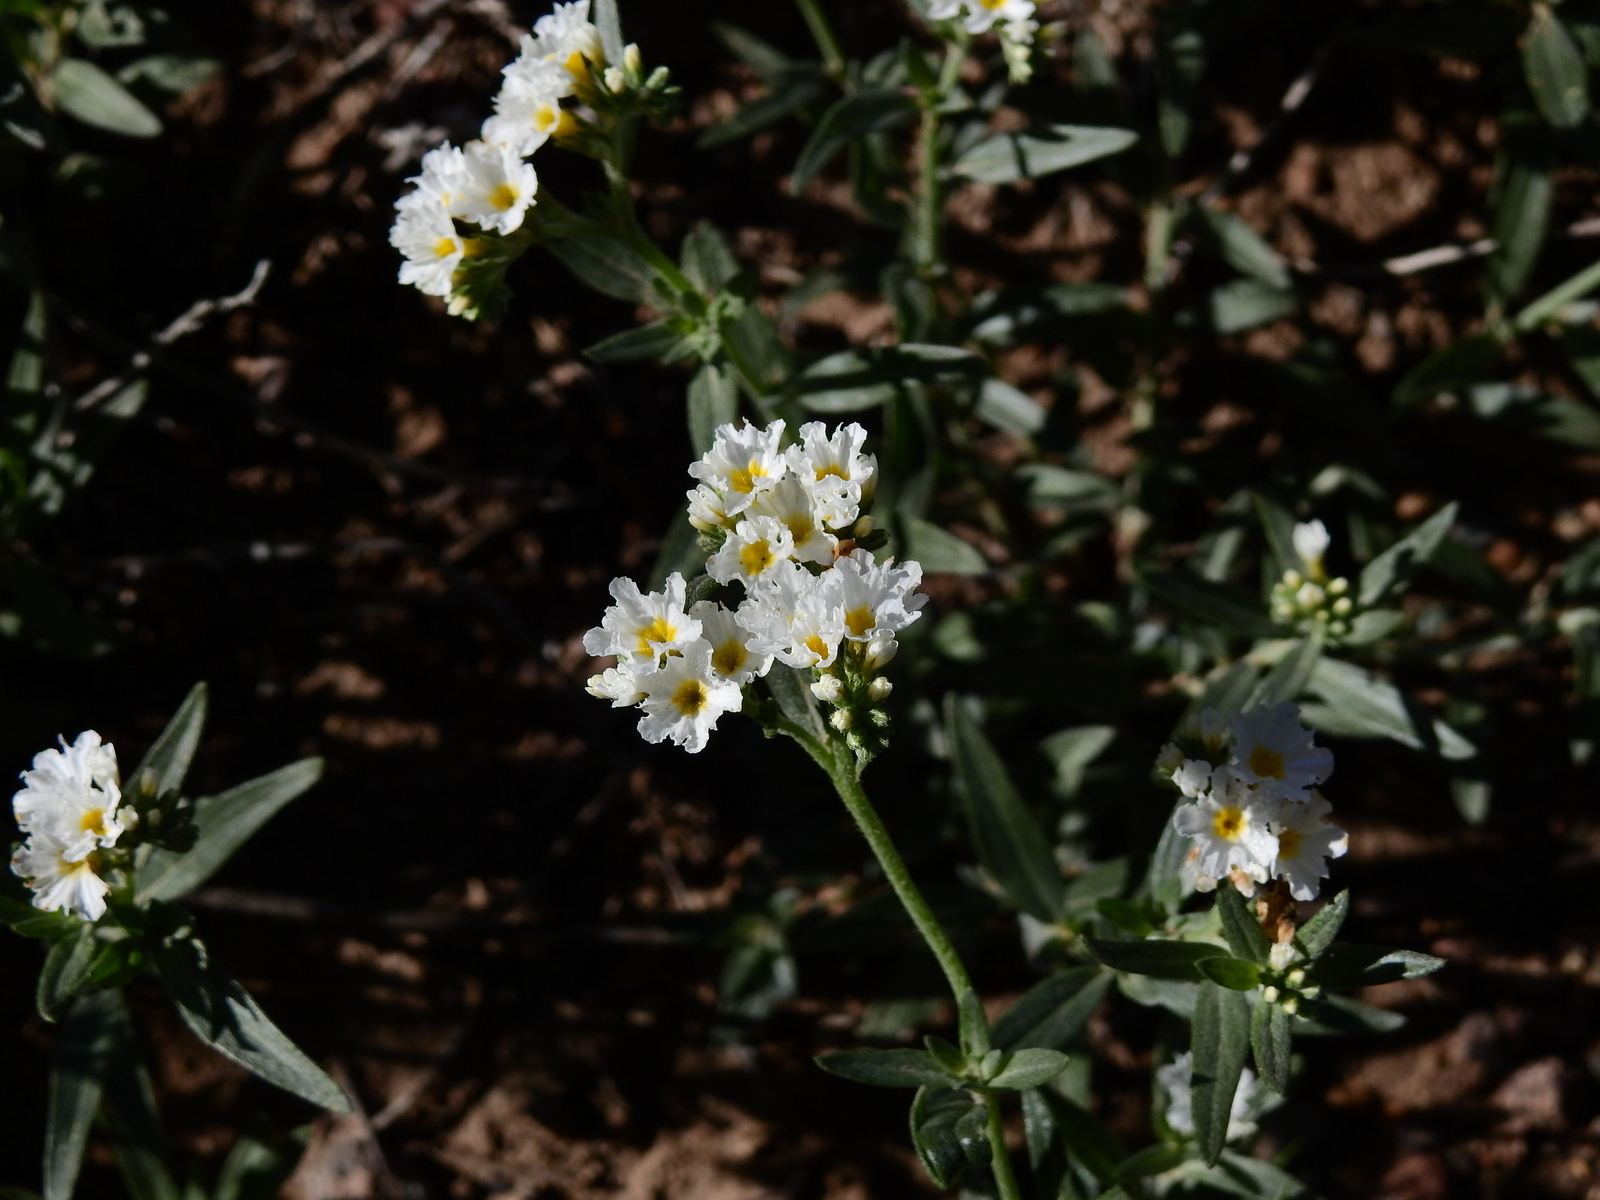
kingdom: Plantae
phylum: Tracheophyta
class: Magnoliopsida
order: Boraginales
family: Heliotropiaceae
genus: Euploca
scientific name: Euploca mendocina
